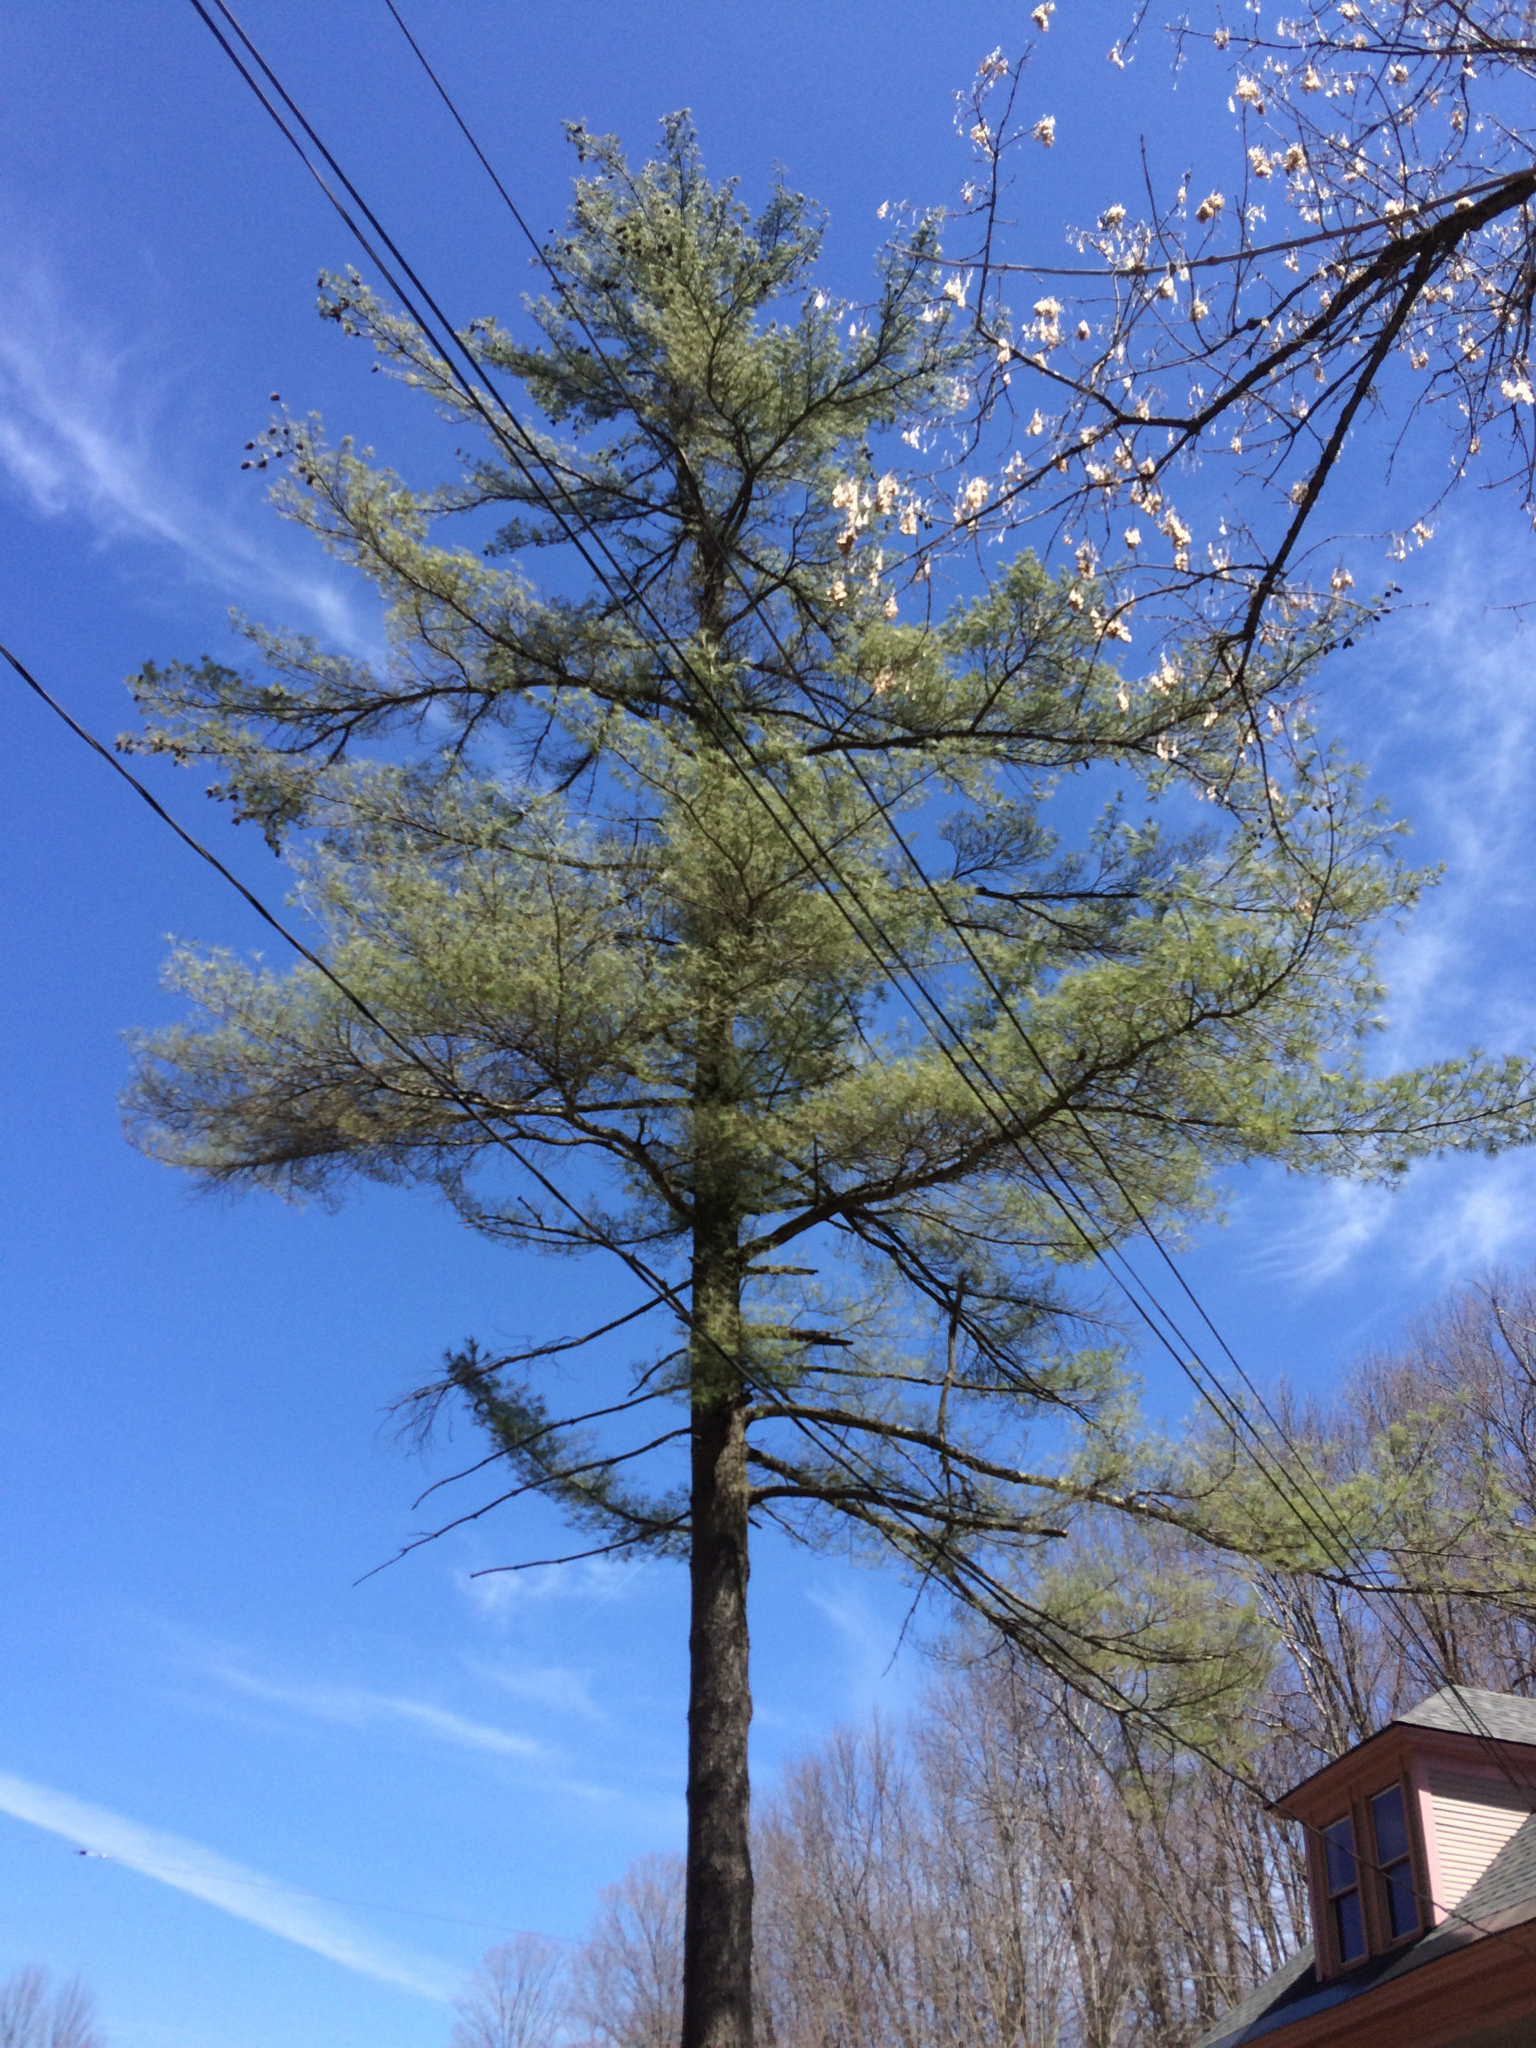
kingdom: Plantae
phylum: Tracheophyta
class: Pinopsida
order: Pinales
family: Pinaceae
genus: Pinus
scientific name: Pinus strobus
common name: Weymouth pine
